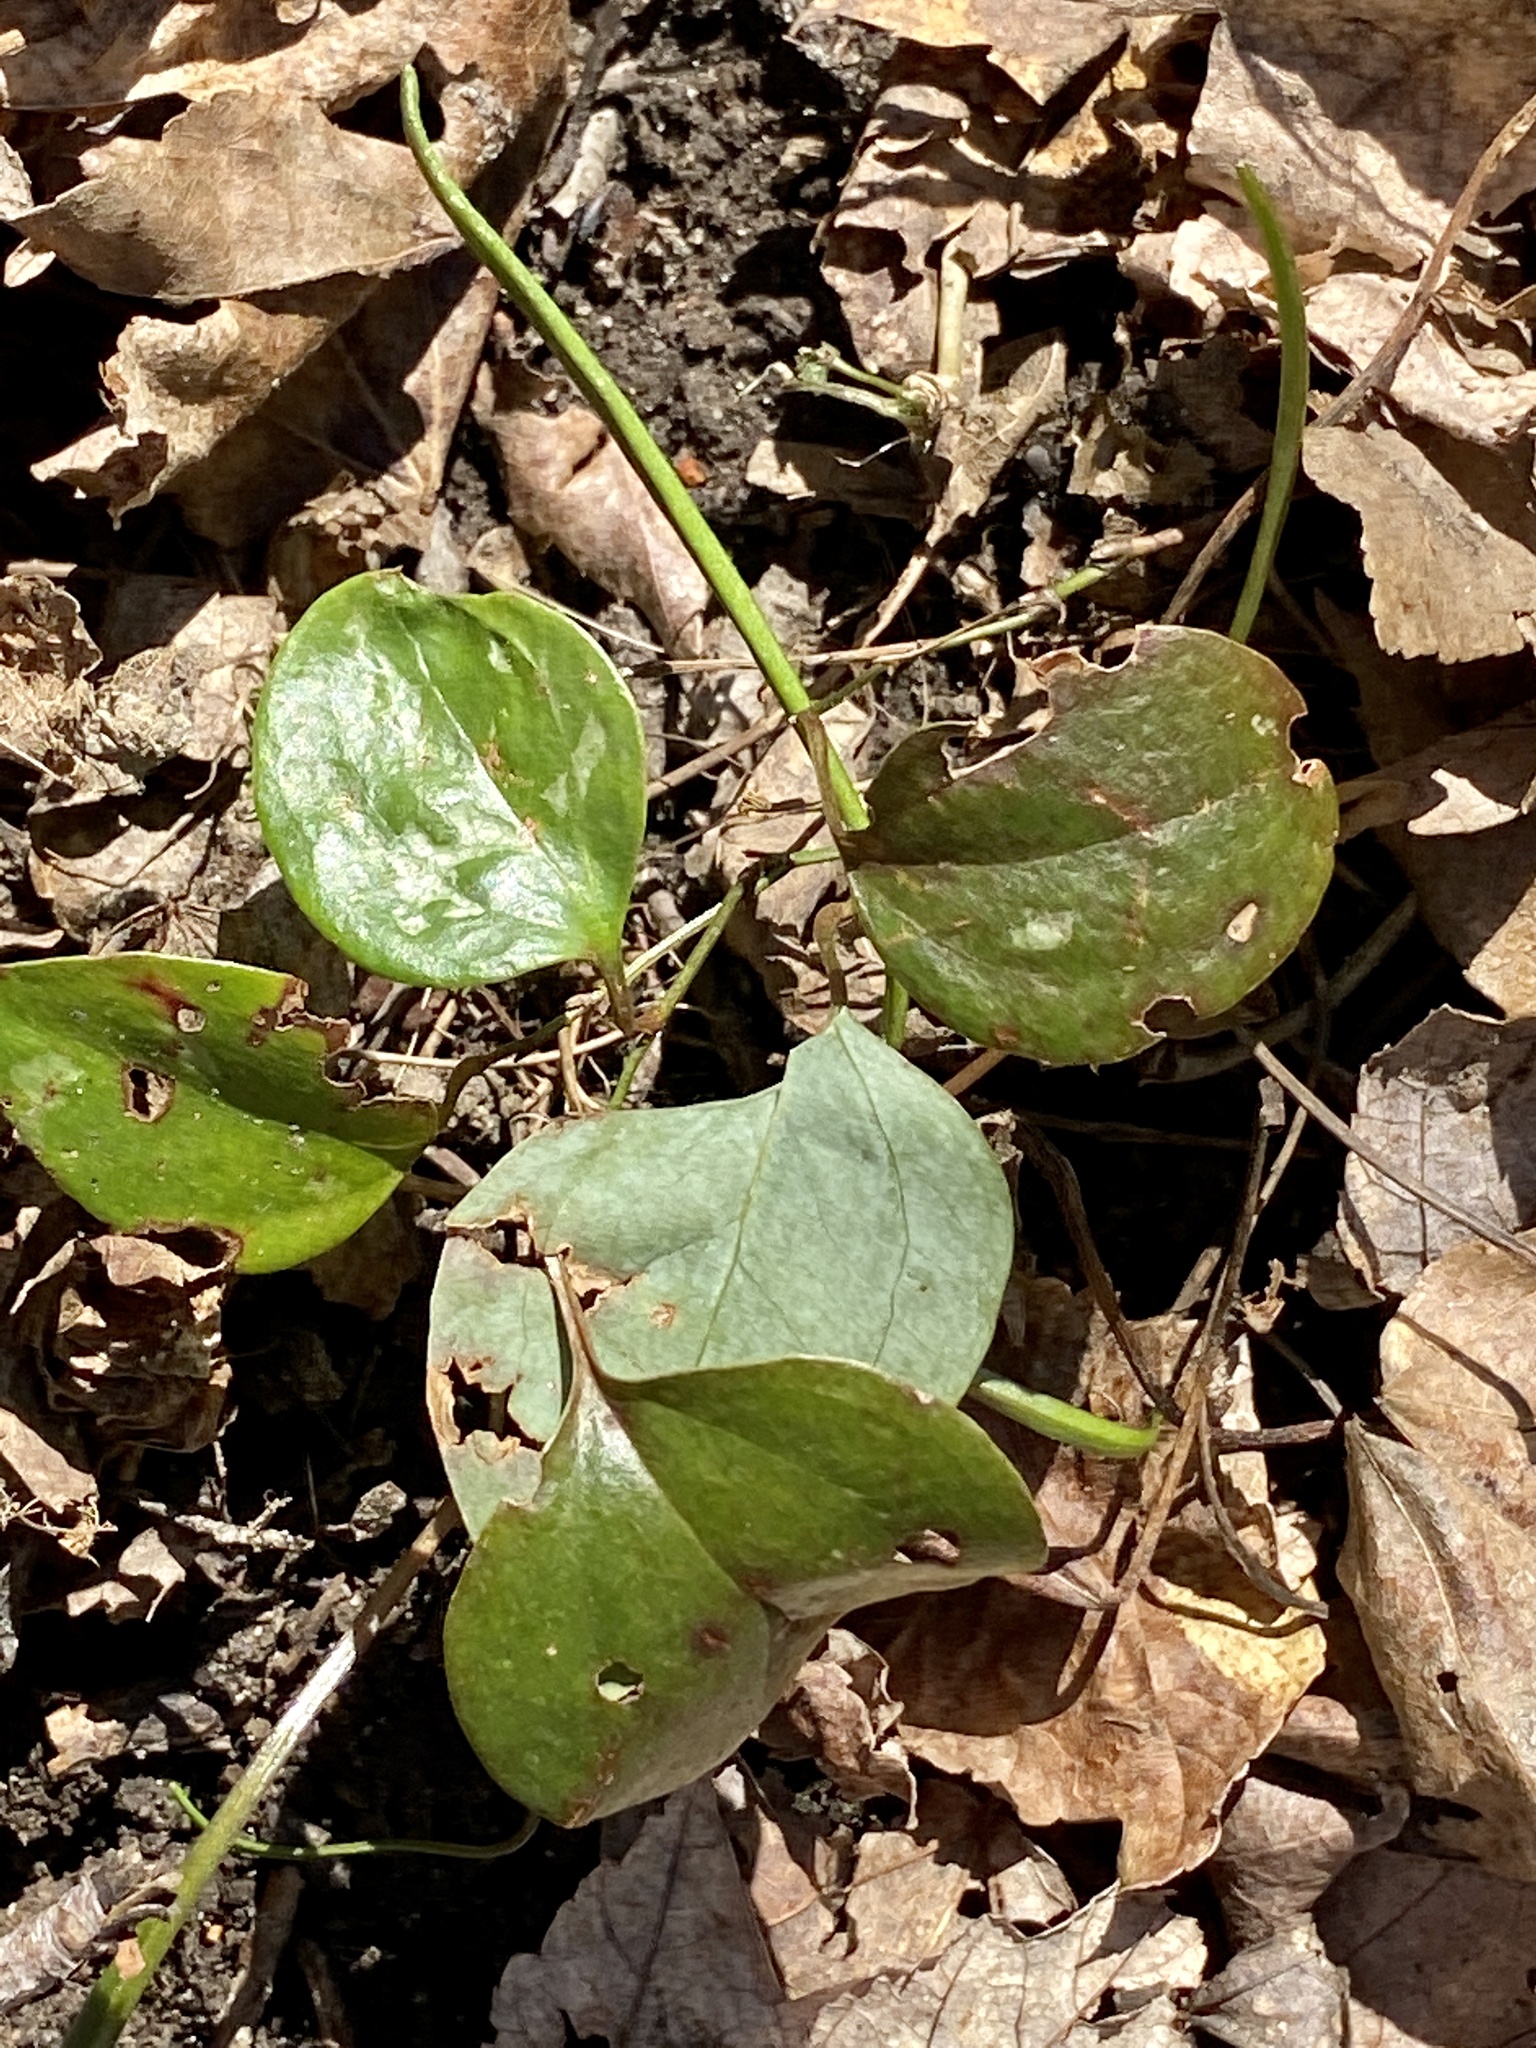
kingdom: Plantae
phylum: Tracheophyta
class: Liliopsida
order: Liliales
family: Smilacaceae
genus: Smilax
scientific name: Smilax glauca
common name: Cat greenbrier
